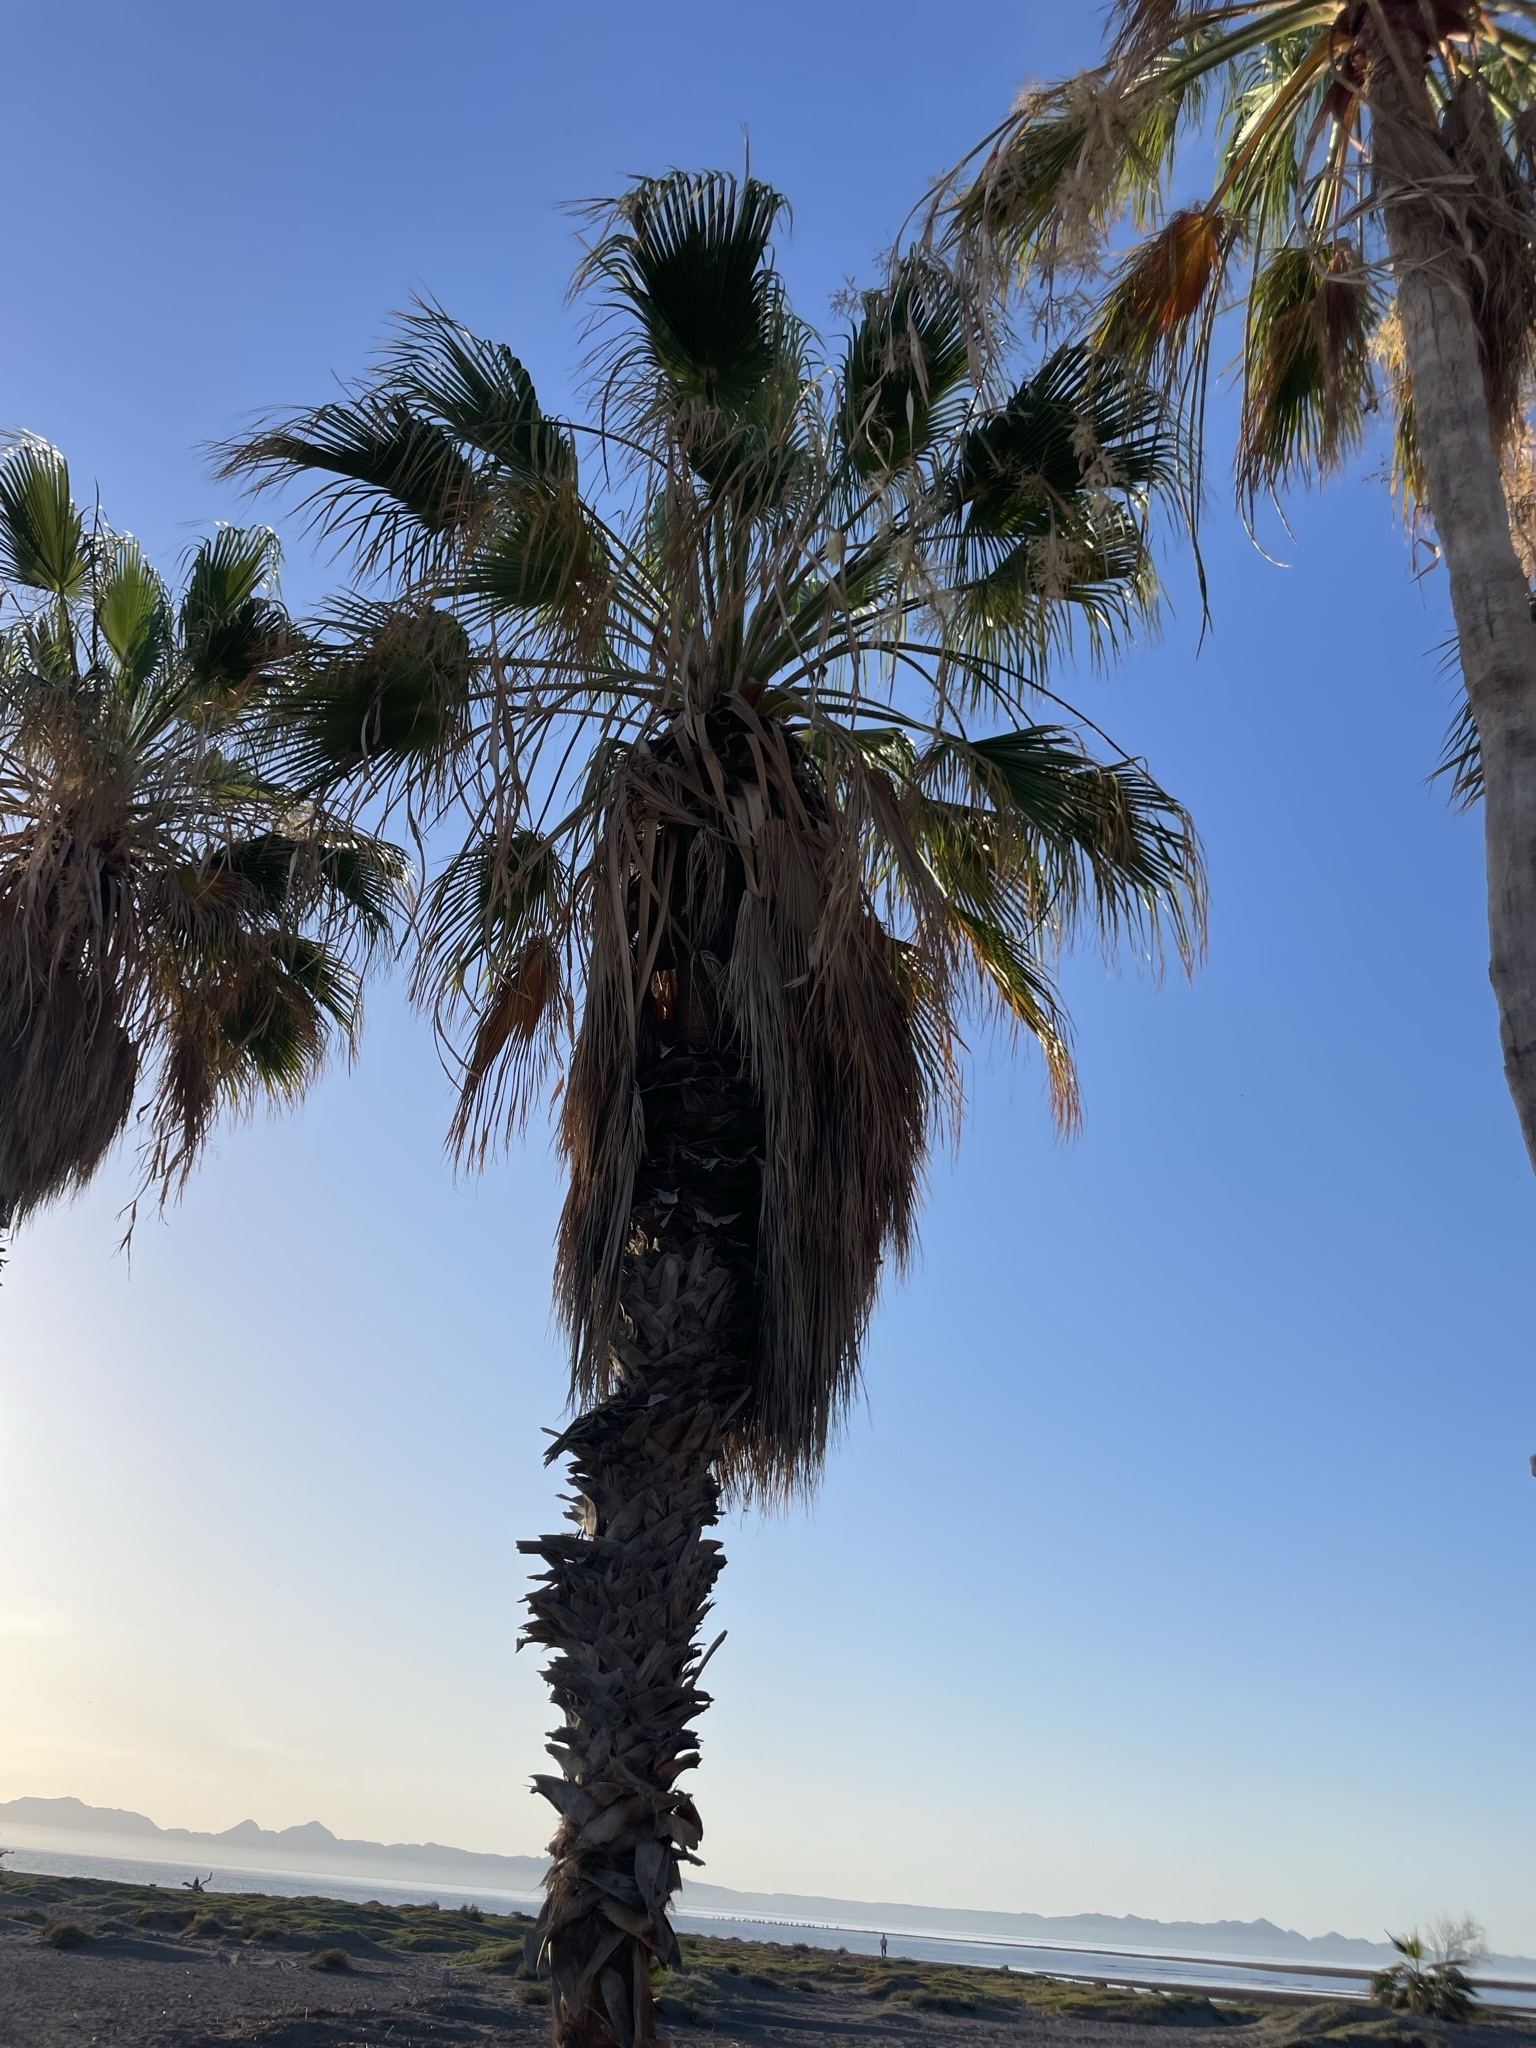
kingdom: Plantae
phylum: Tracheophyta
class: Liliopsida
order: Arecales
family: Arecaceae
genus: Washingtonia
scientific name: Washingtonia robusta
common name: Mexican fan palm
